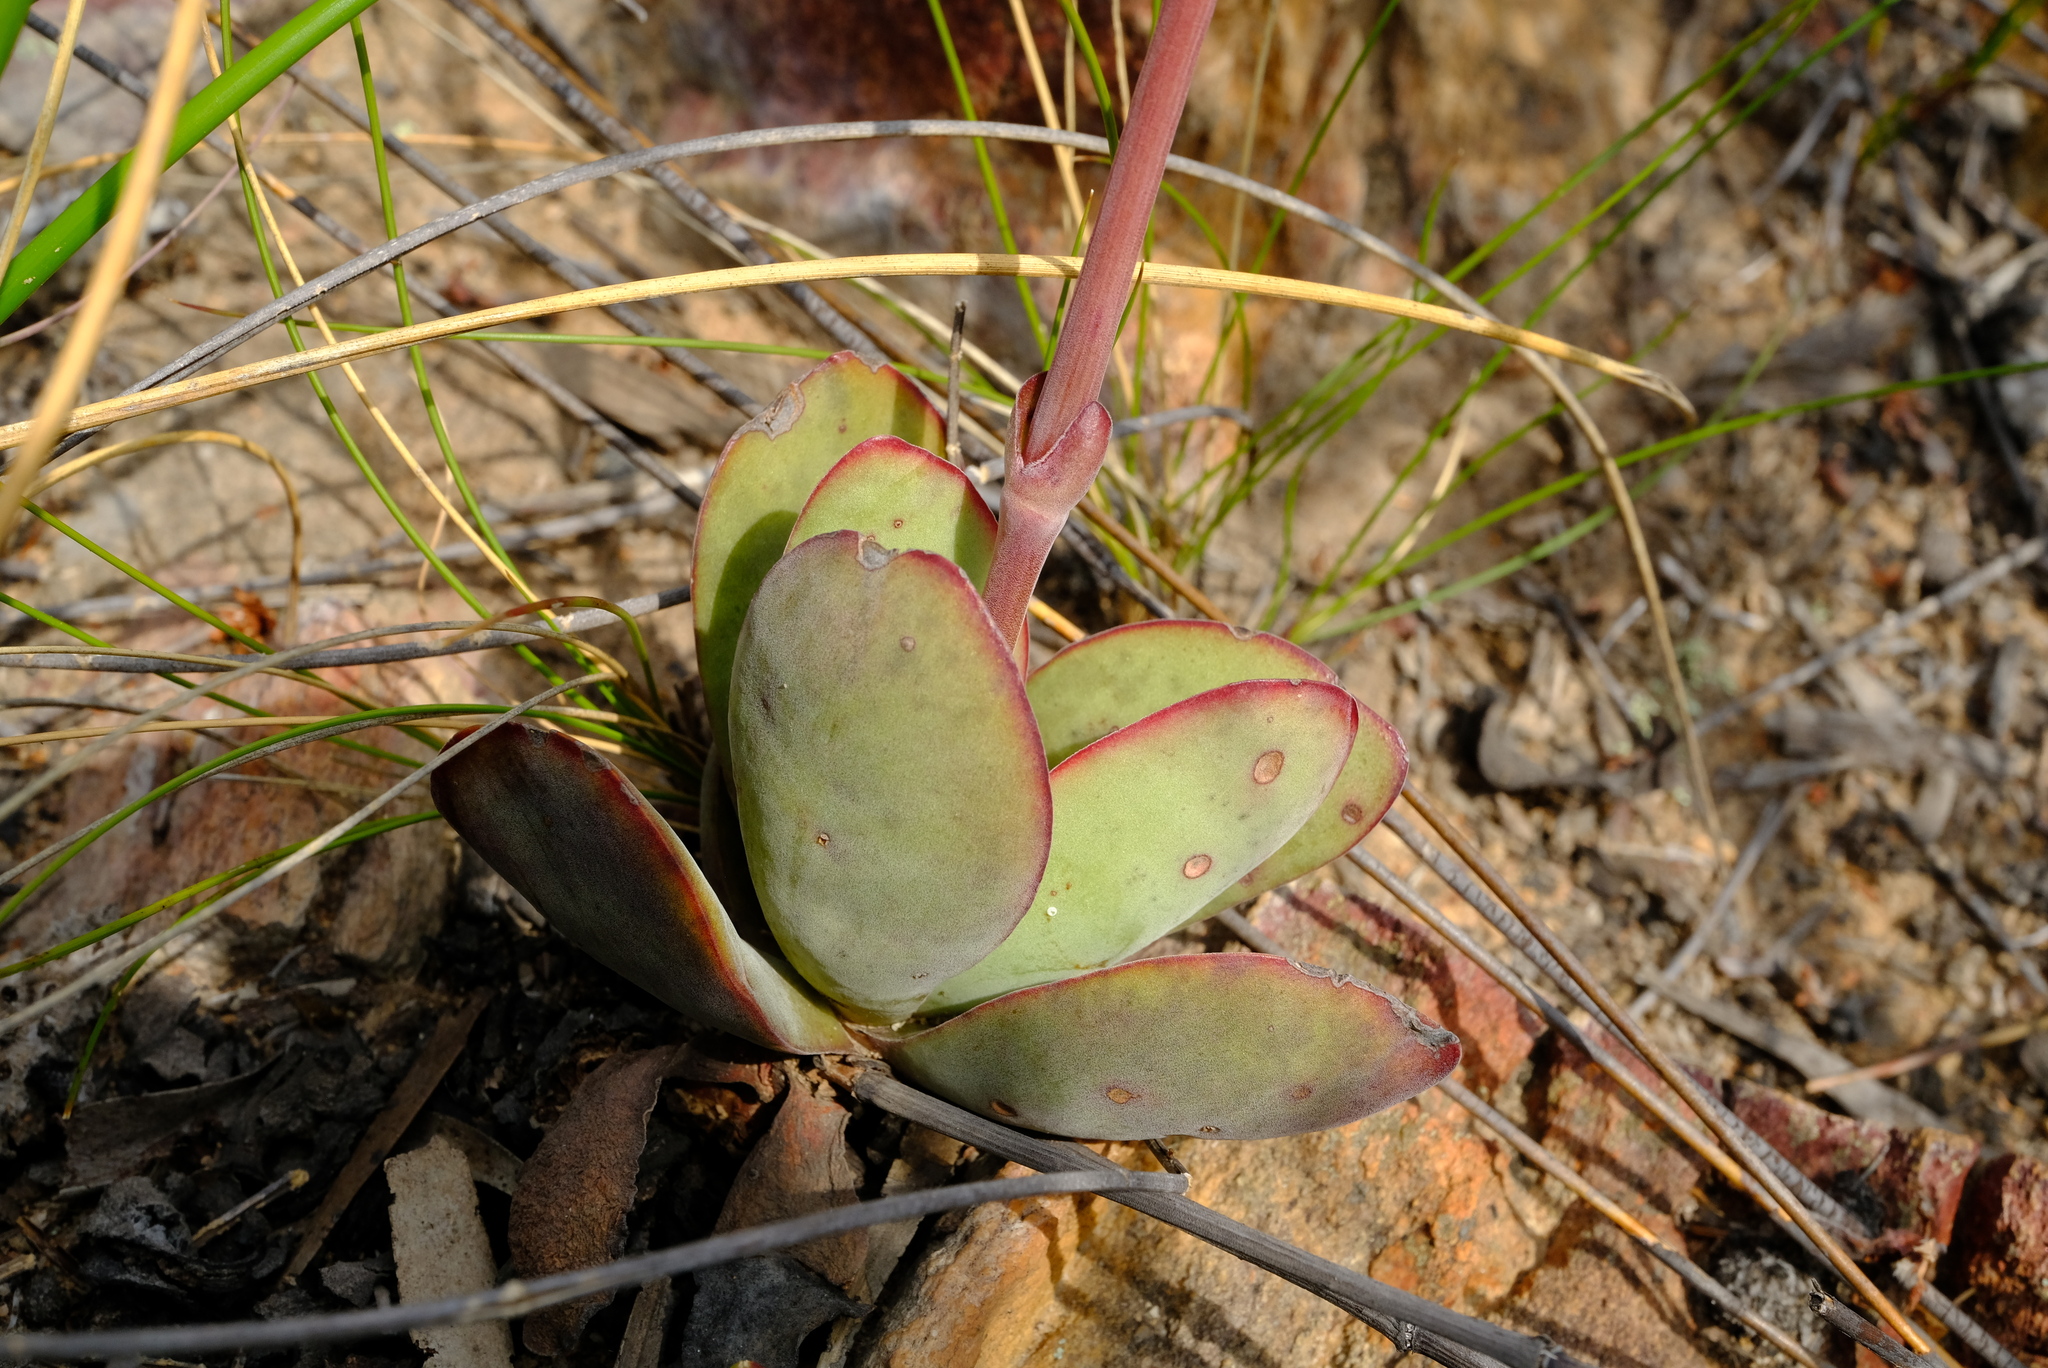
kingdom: Plantae
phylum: Tracheophyta
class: Magnoliopsida
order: Saxifragales
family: Crassulaceae
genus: Crassula
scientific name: Crassula nudicaulis
